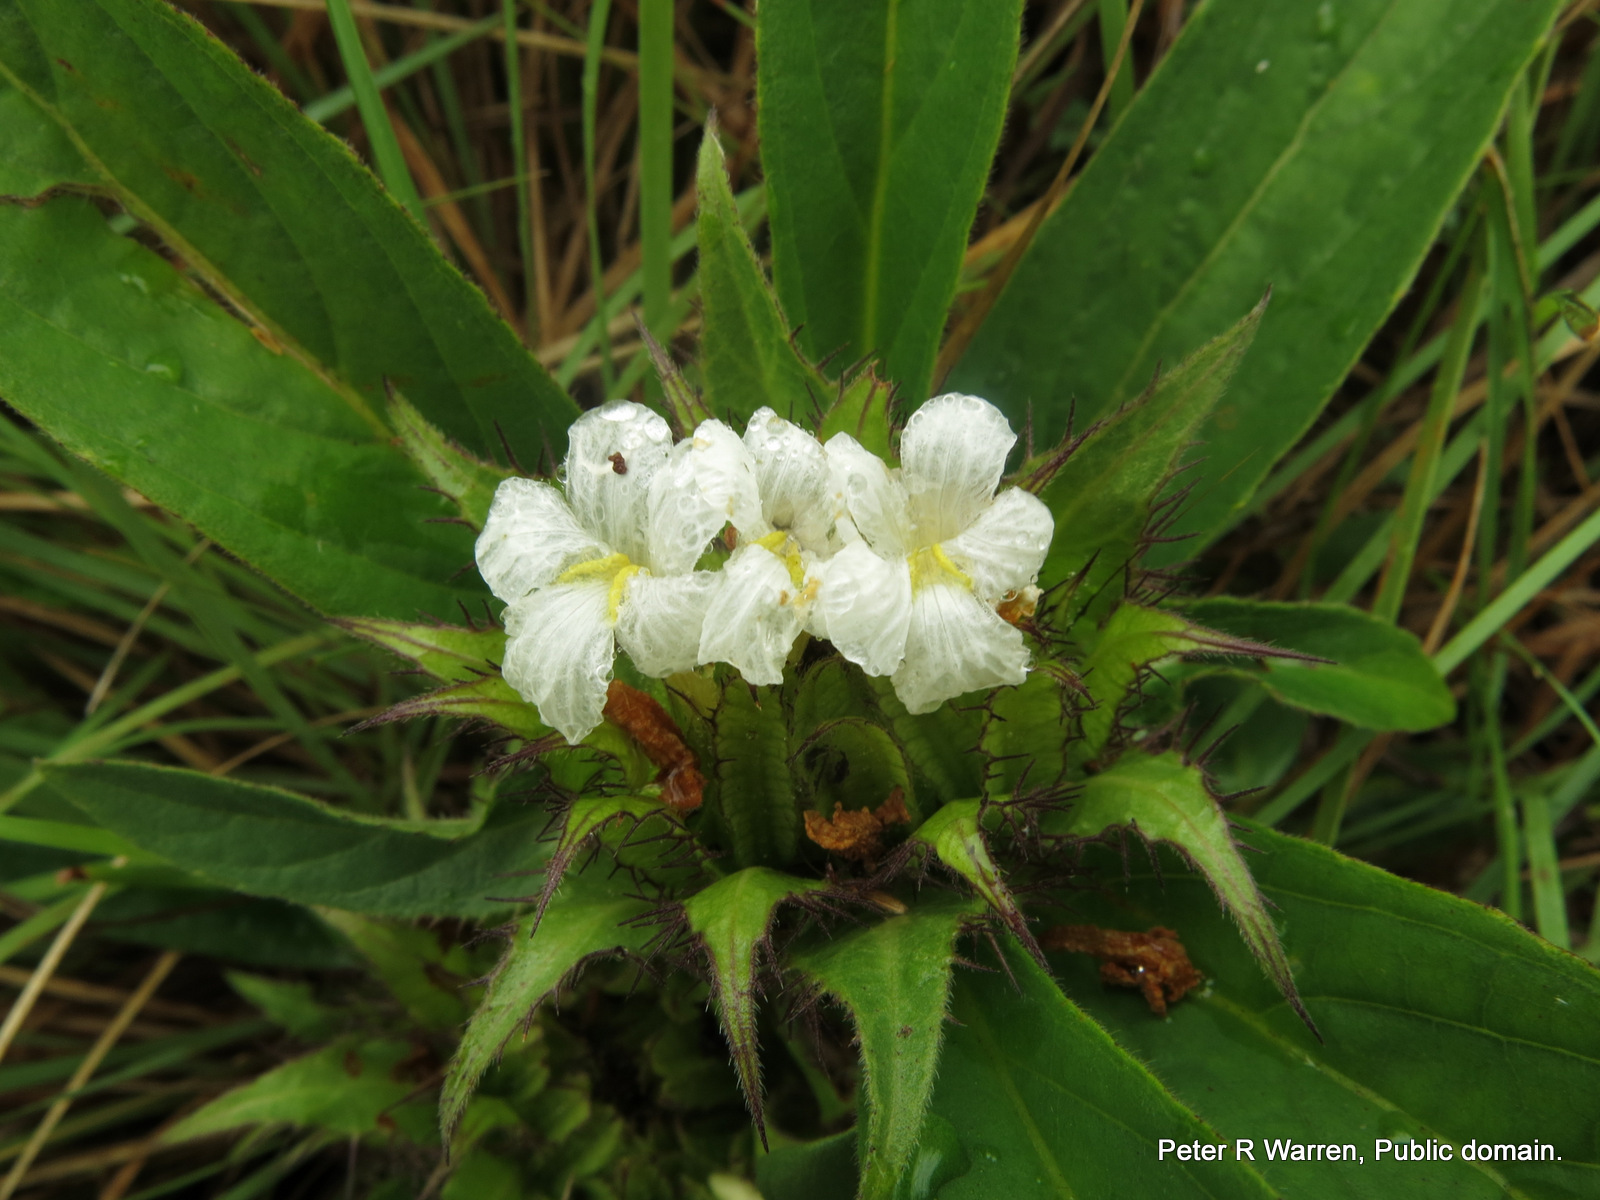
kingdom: Plantae
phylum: Tracheophyta
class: Magnoliopsida
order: Lamiales
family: Acanthaceae
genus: Crabbea
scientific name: Crabbea cirsioides
